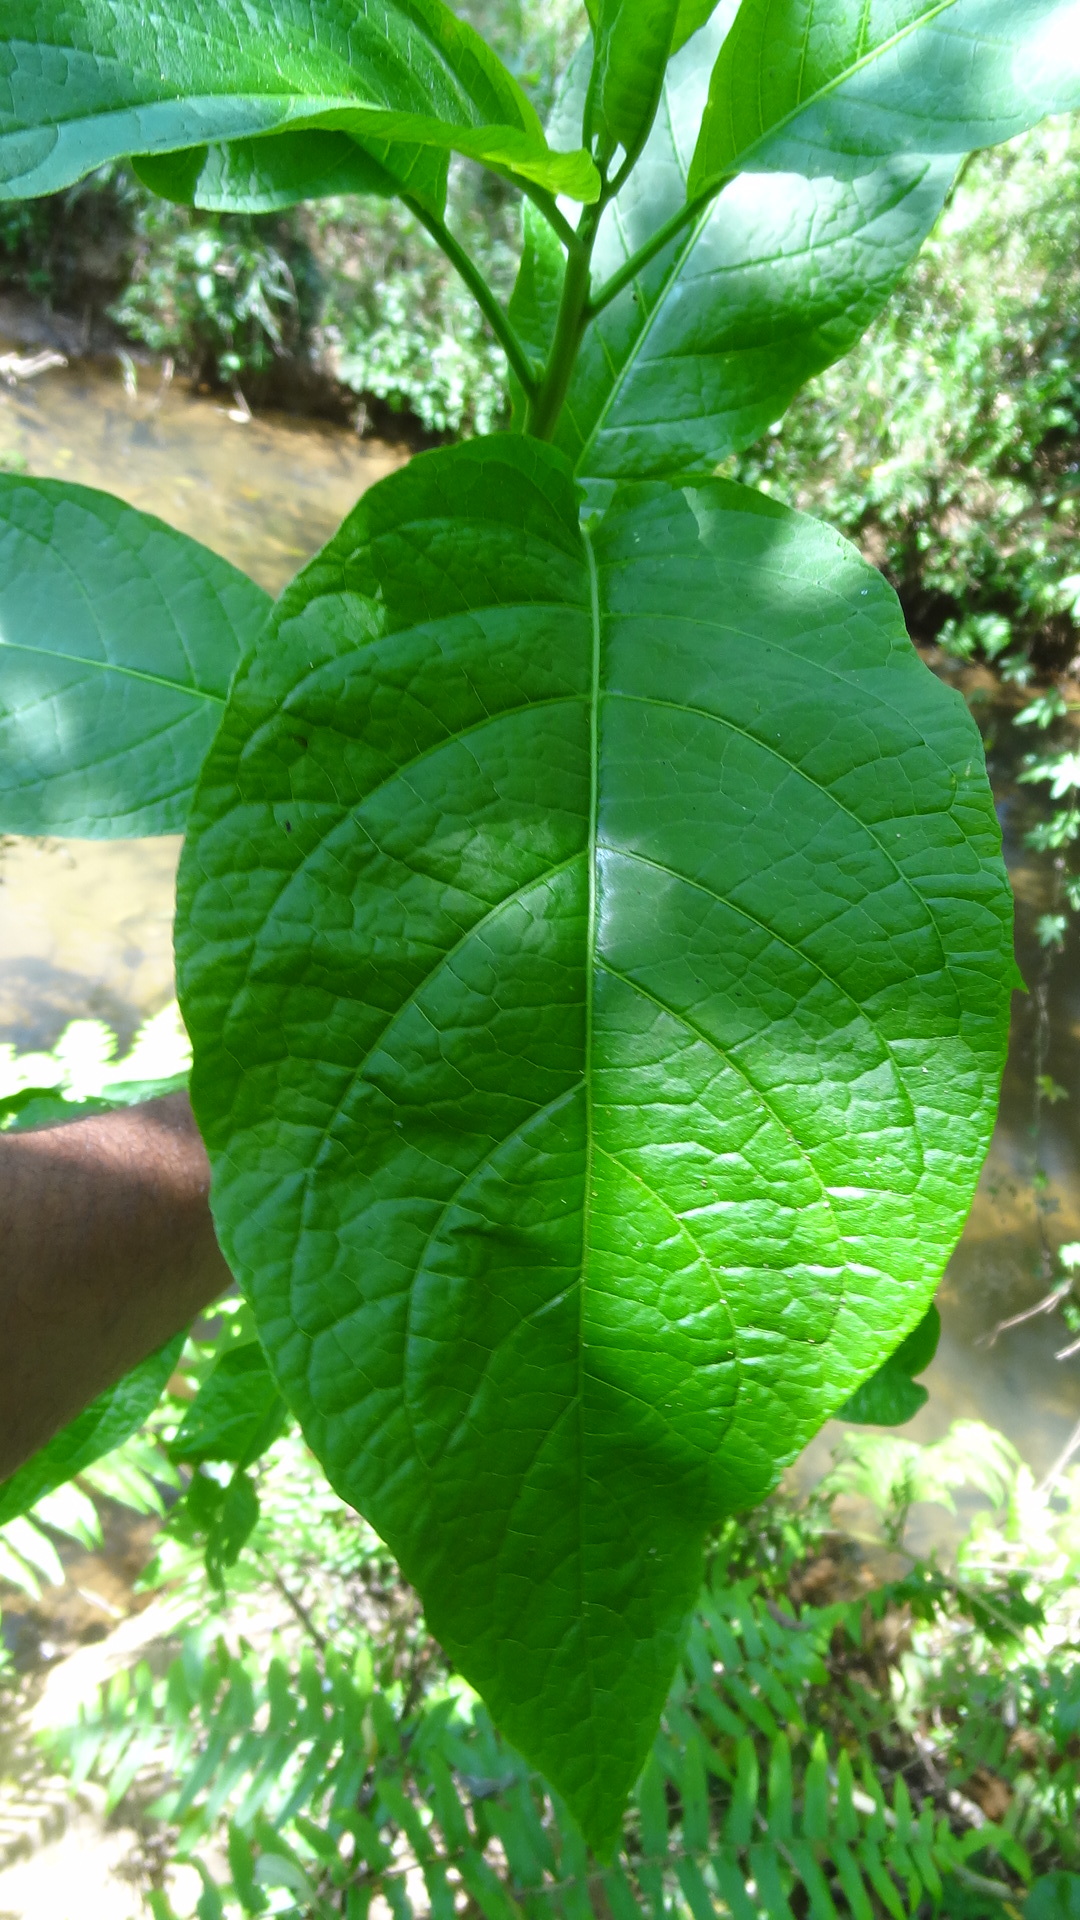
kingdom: Plantae
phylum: Tracheophyta
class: Magnoliopsida
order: Solanales
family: Solanaceae
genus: Brugmansia
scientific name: Brugmansia suaveolens
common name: Angel's tears
